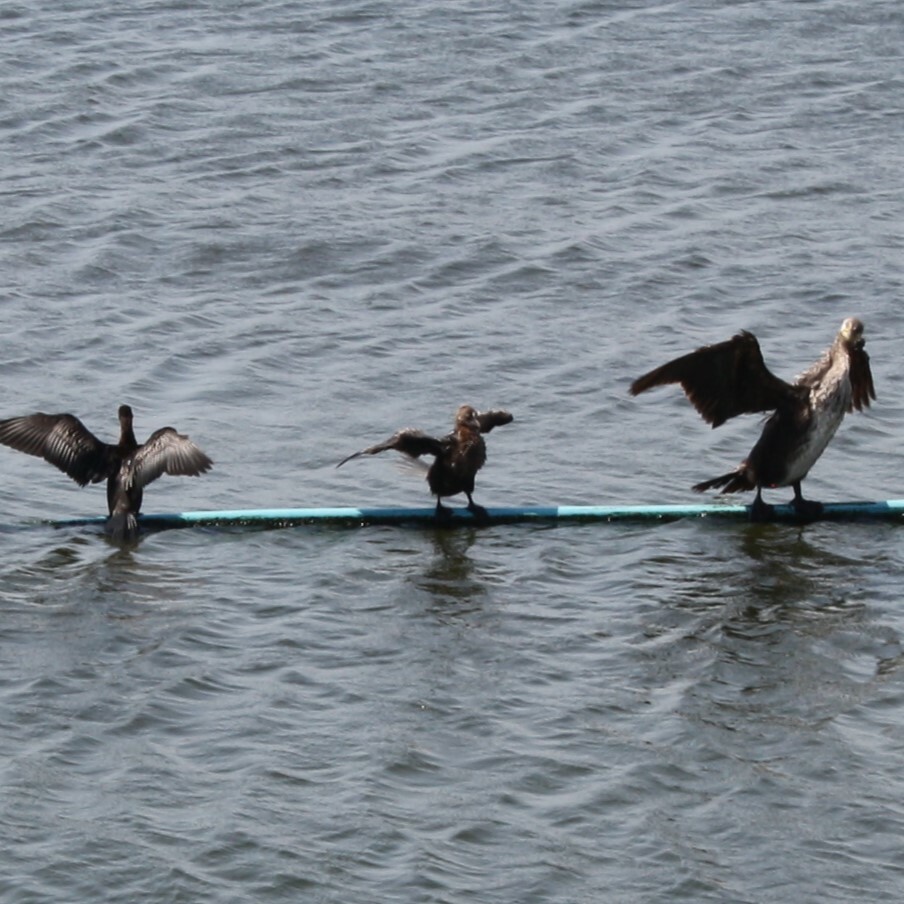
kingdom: Animalia
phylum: Chordata
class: Aves
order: Suliformes
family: Phalacrocoracidae
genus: Microcarbo
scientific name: Microcarbo pygmaeus
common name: Pygmy cormorant
